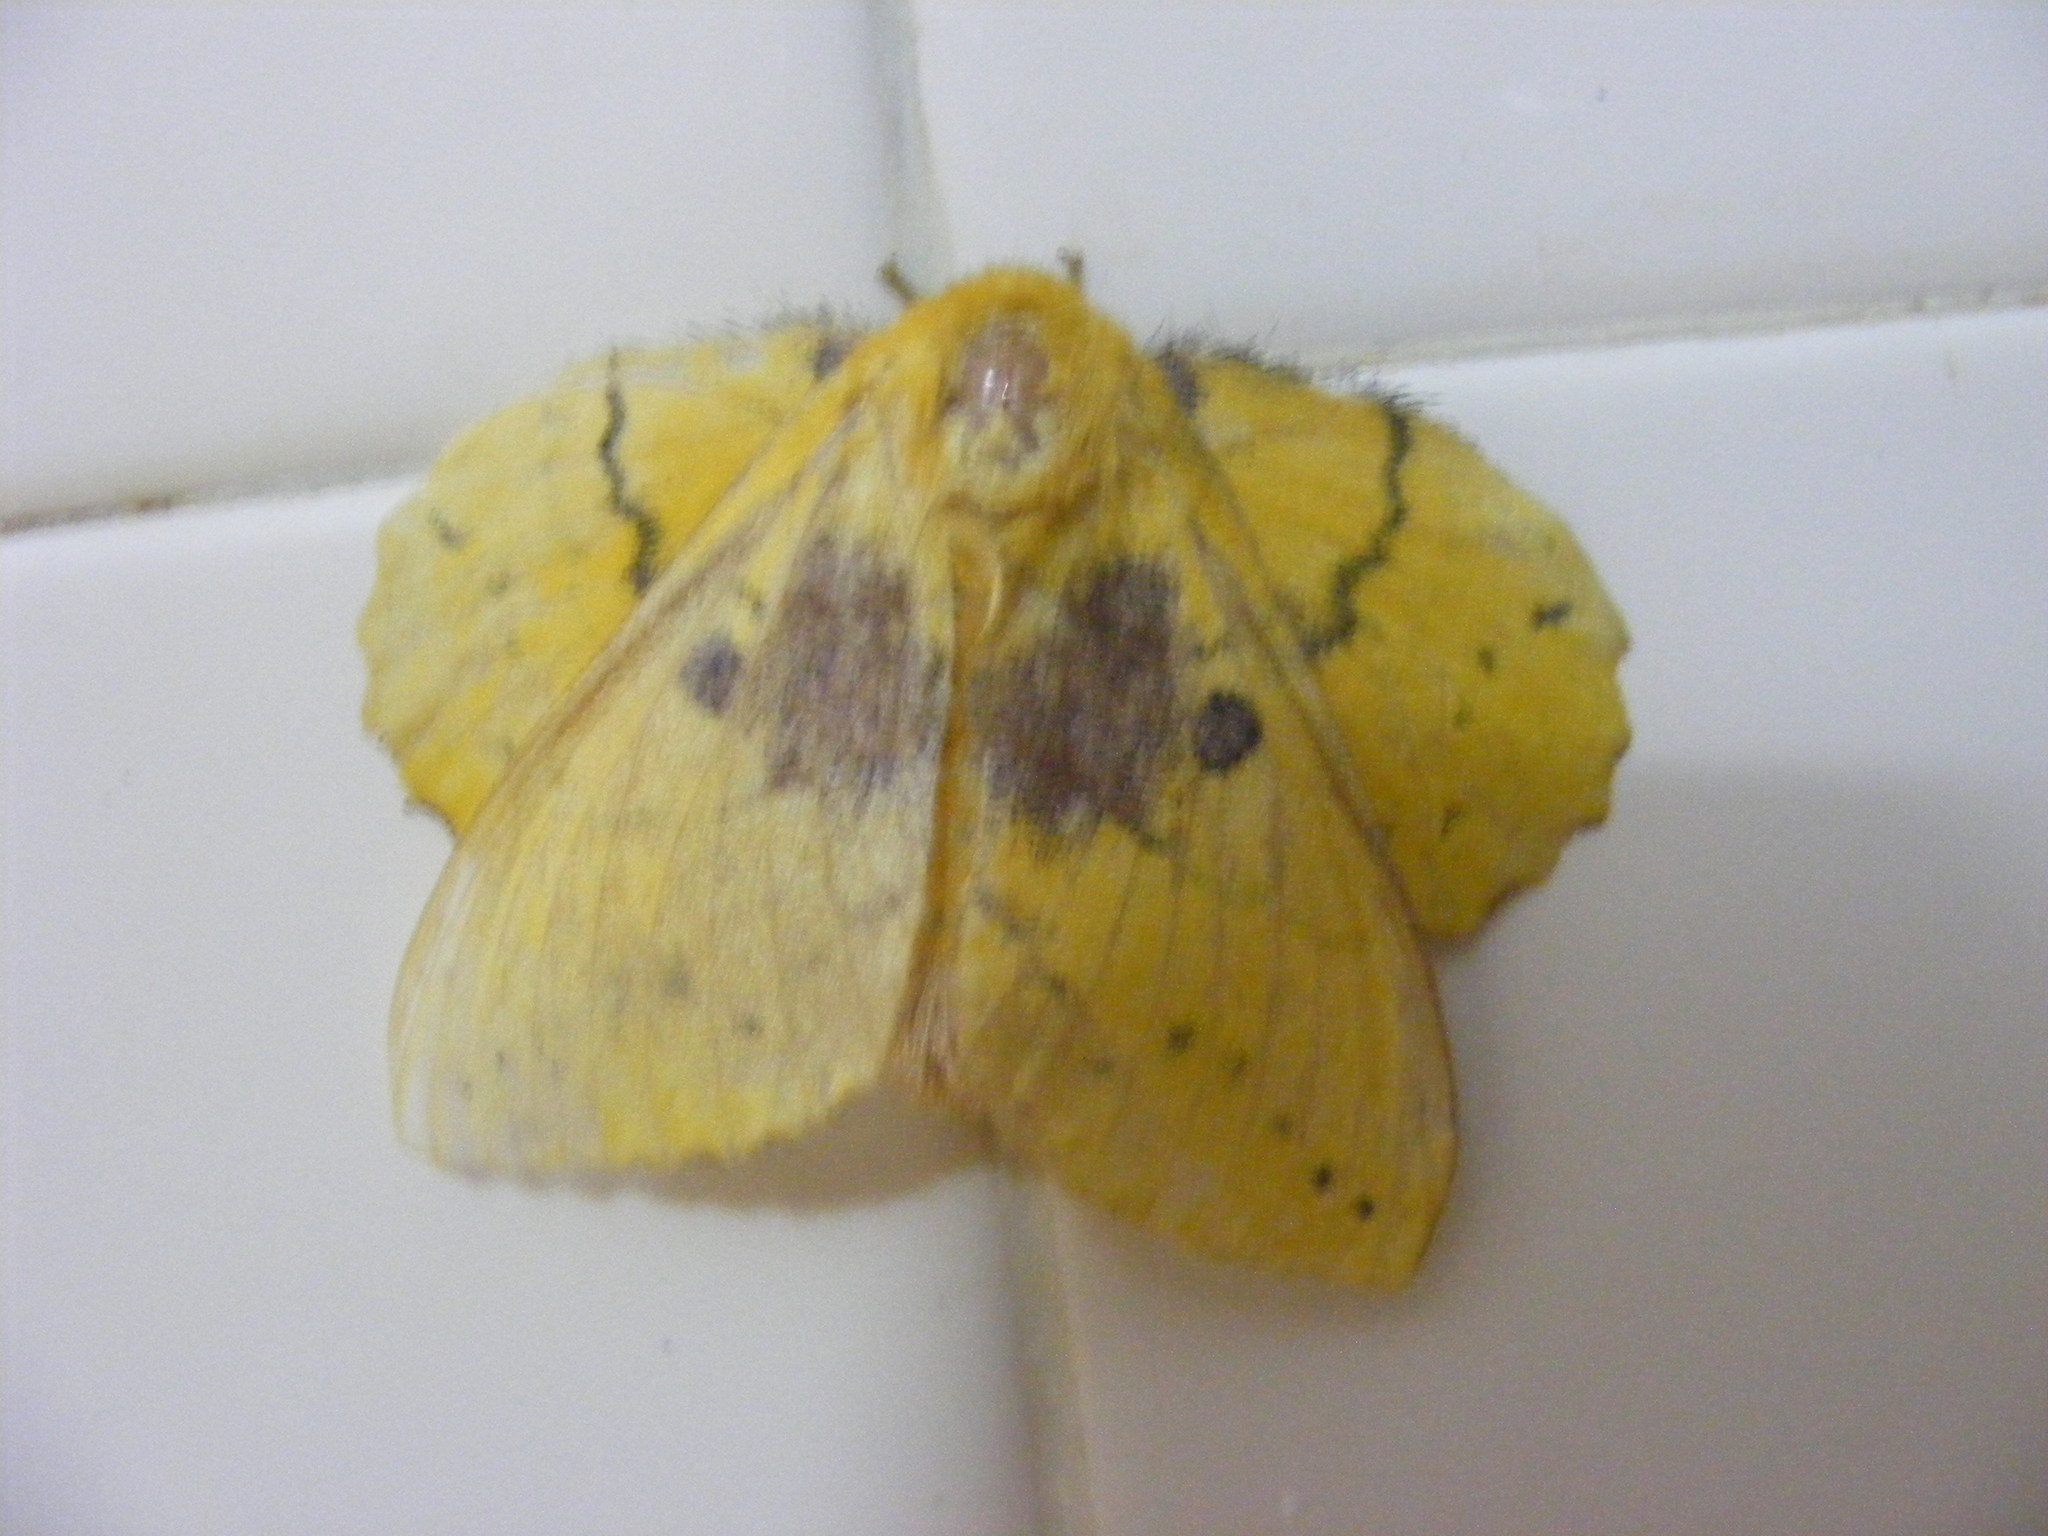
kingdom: Animalia
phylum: Arthropoda
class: Insecta
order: Lepidoptera
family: Lasiocampidae
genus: Trabala
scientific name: Trabala vishnou
